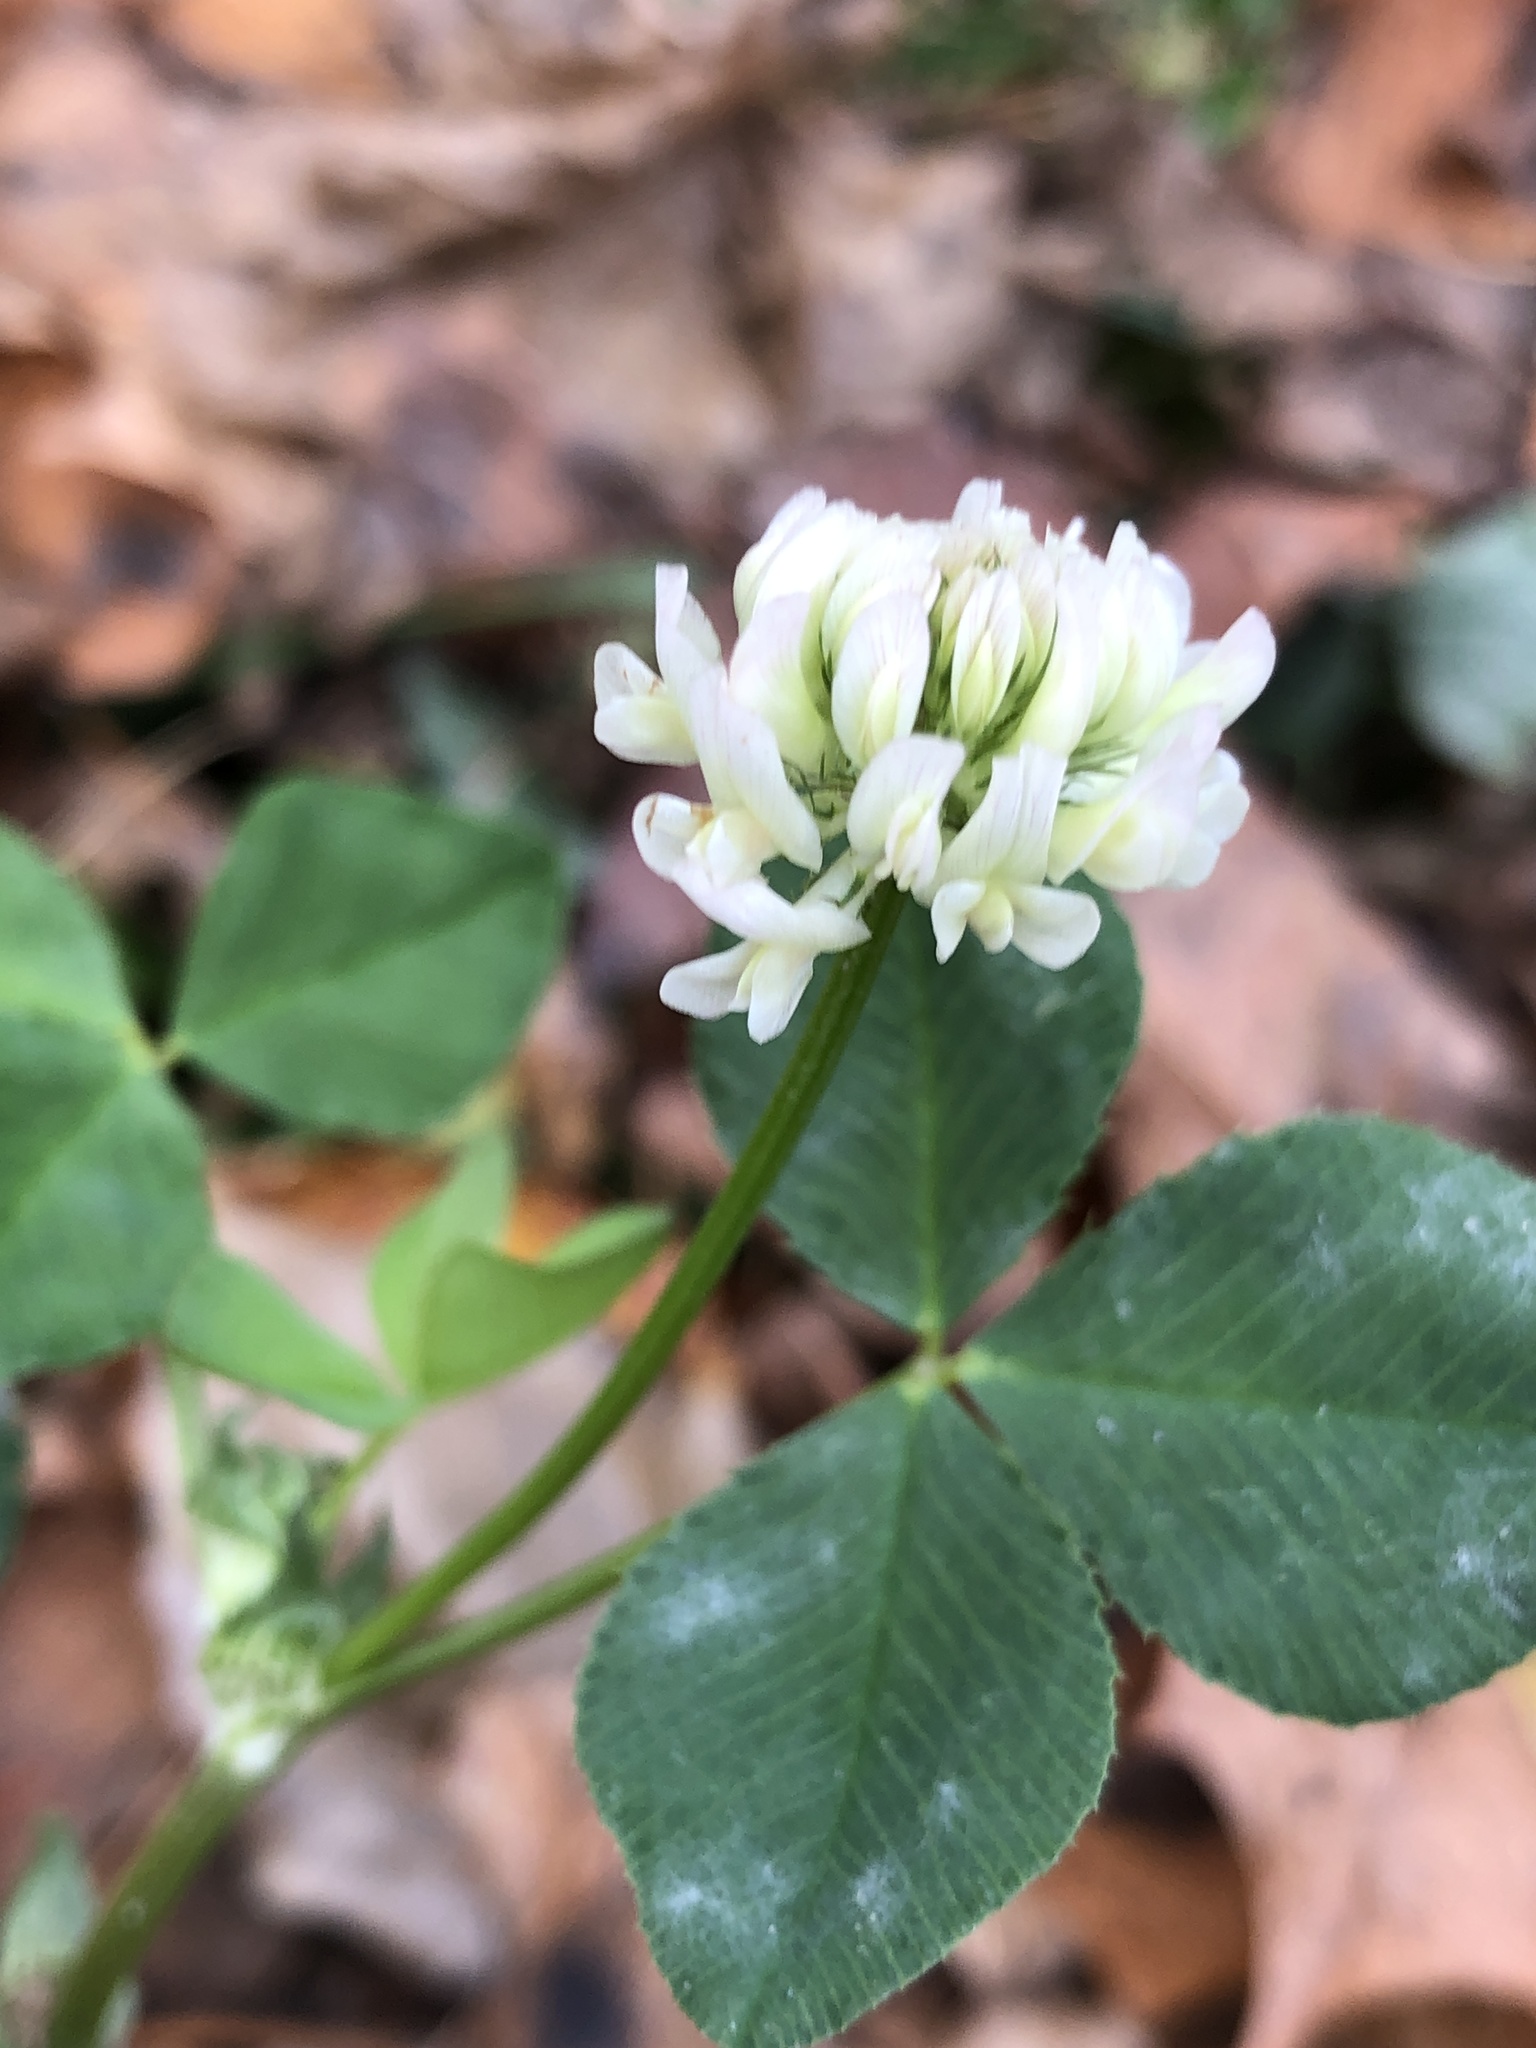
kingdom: Plantae
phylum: Tracheophyta
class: Magnoliopsida
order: Fabales
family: Fabaceae
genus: Trifolium
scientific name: Trifolium repens
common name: White clover
